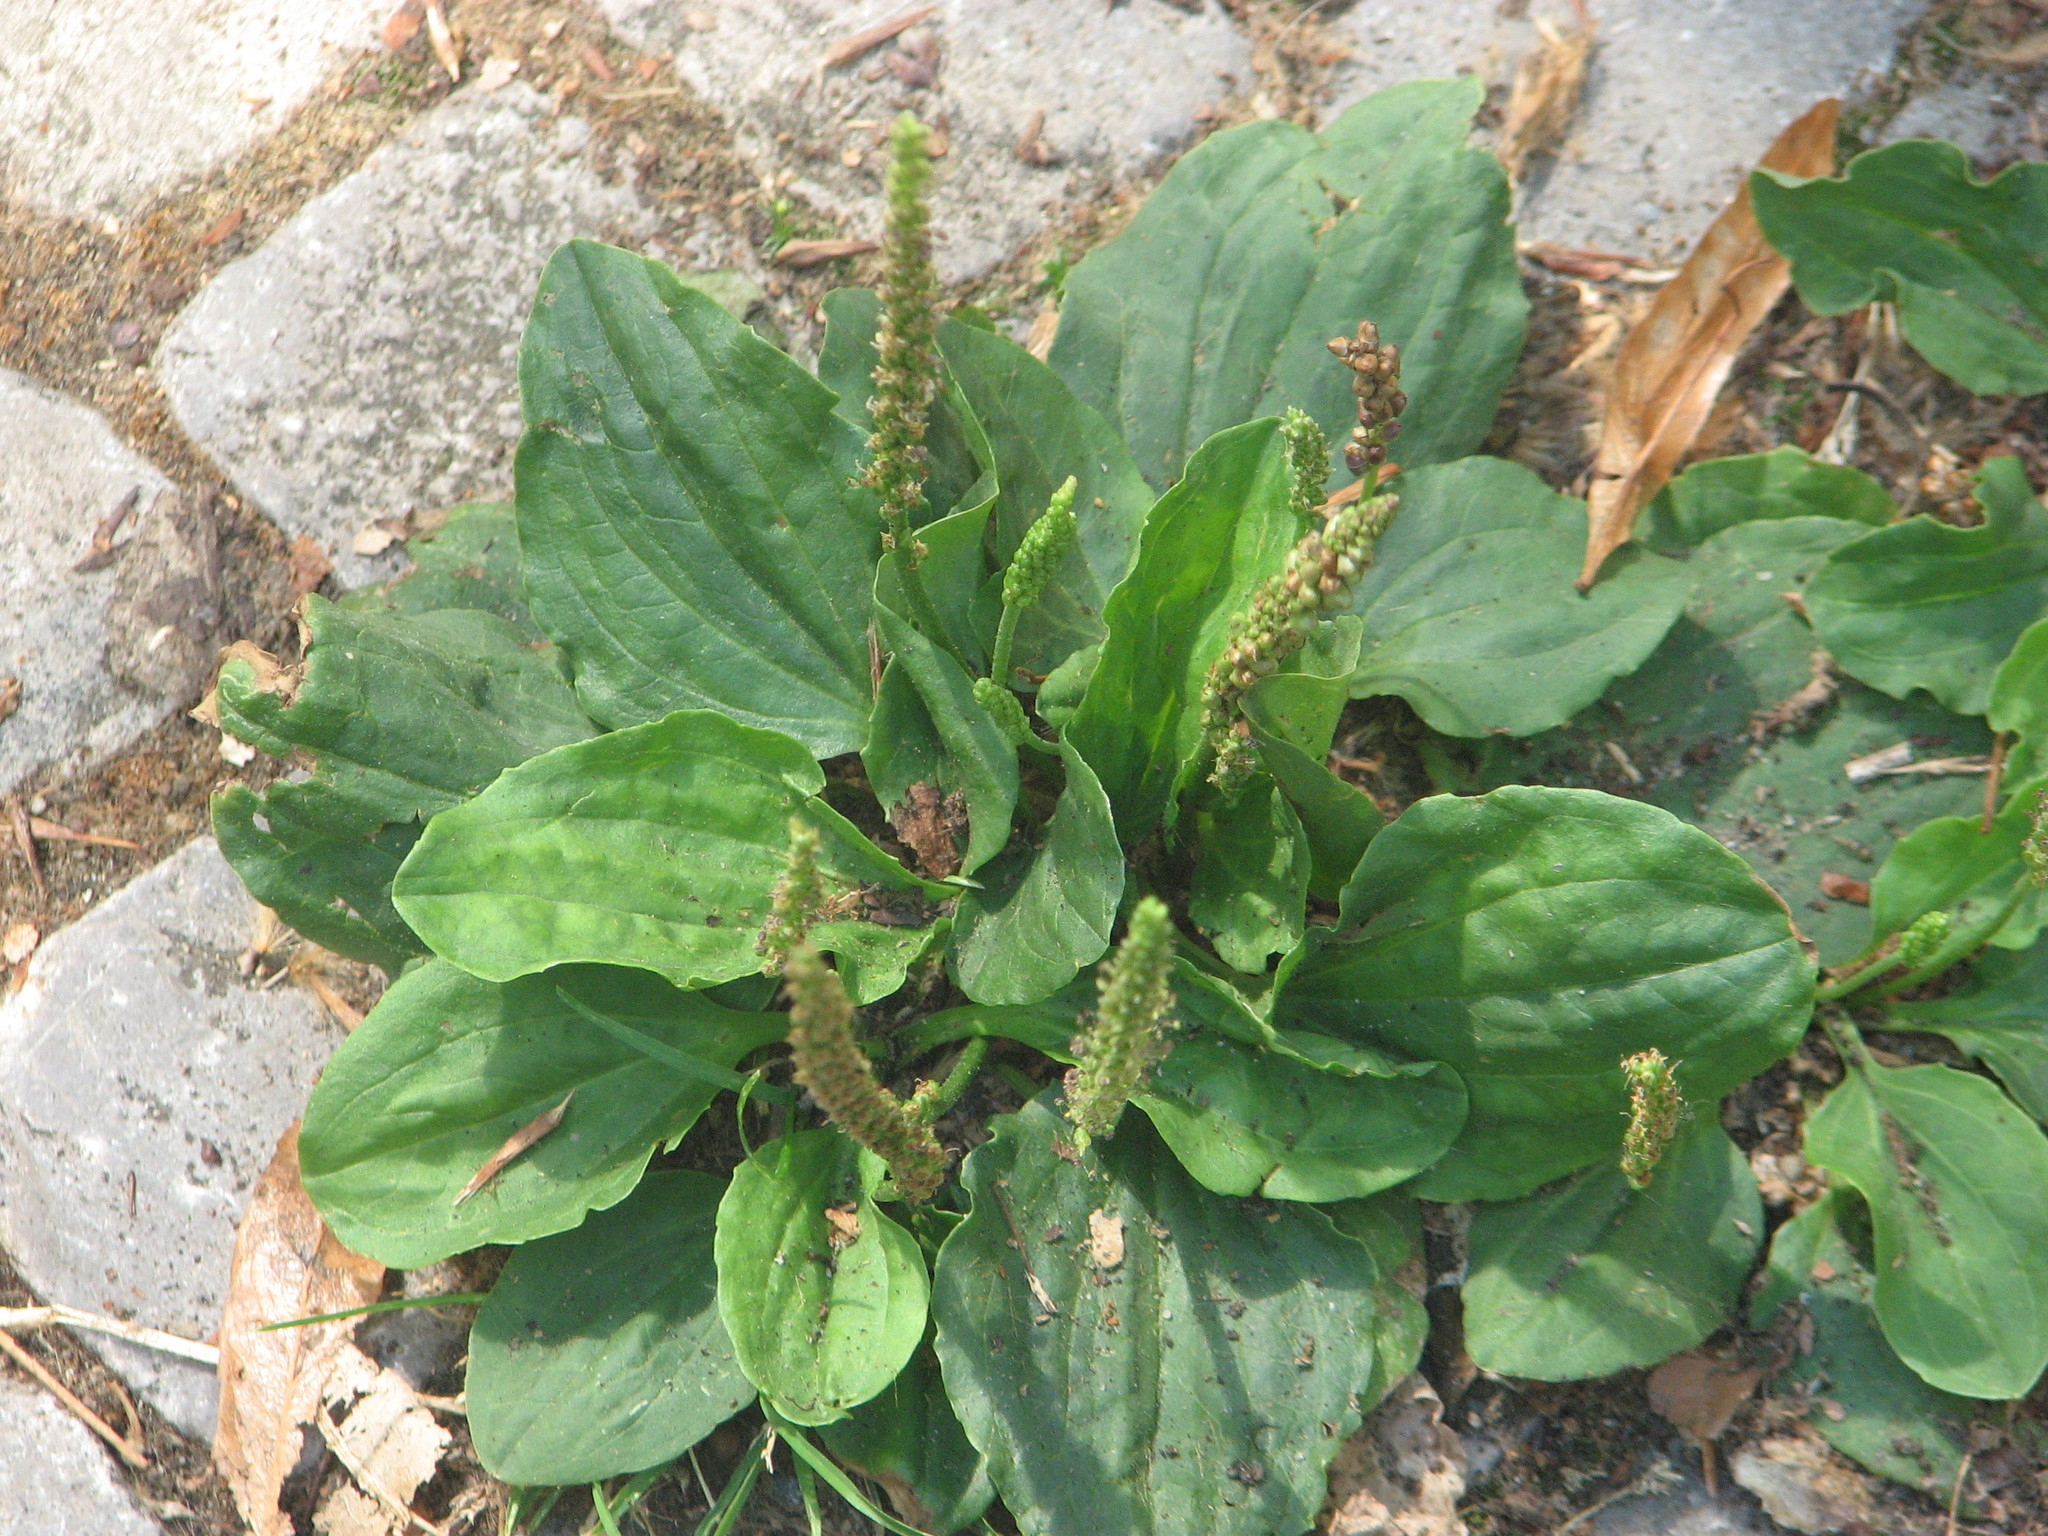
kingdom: Plantae
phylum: Tracheophyta
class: Magnoliopsida
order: Lamiales
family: Plantaginaceae
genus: Plantago
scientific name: Plantago major
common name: Common plantain
